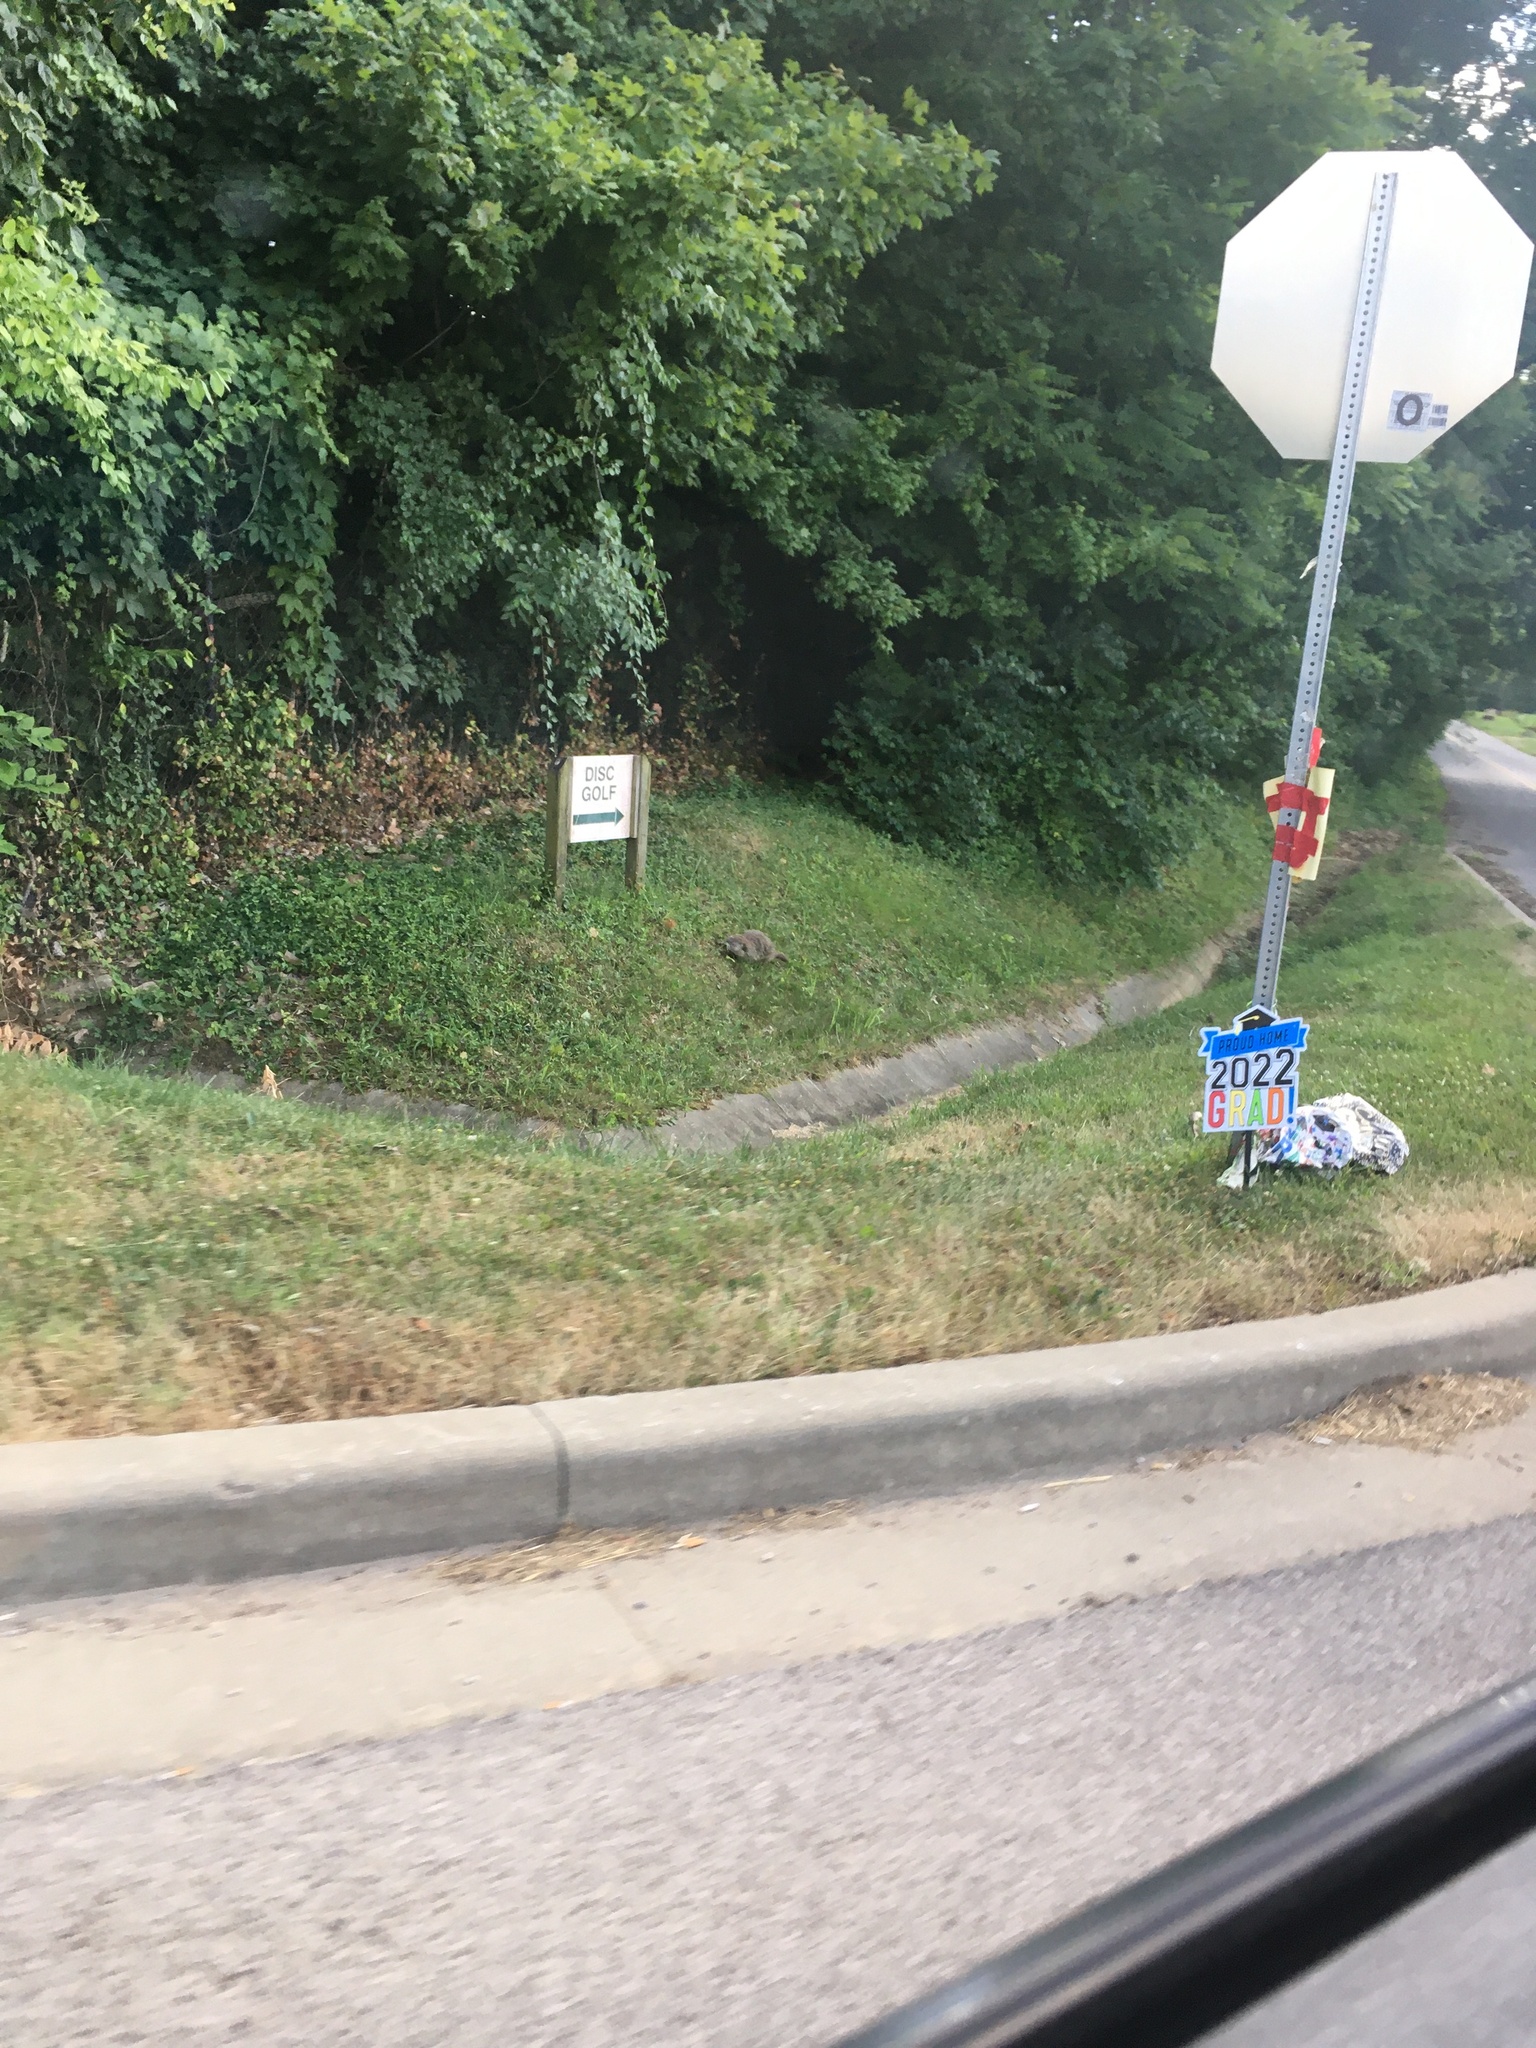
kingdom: Animalia
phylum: Chordata
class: Mammalia
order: Rodentia
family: Sciuridae
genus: Marmota
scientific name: Marmota monax
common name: Groundhog
